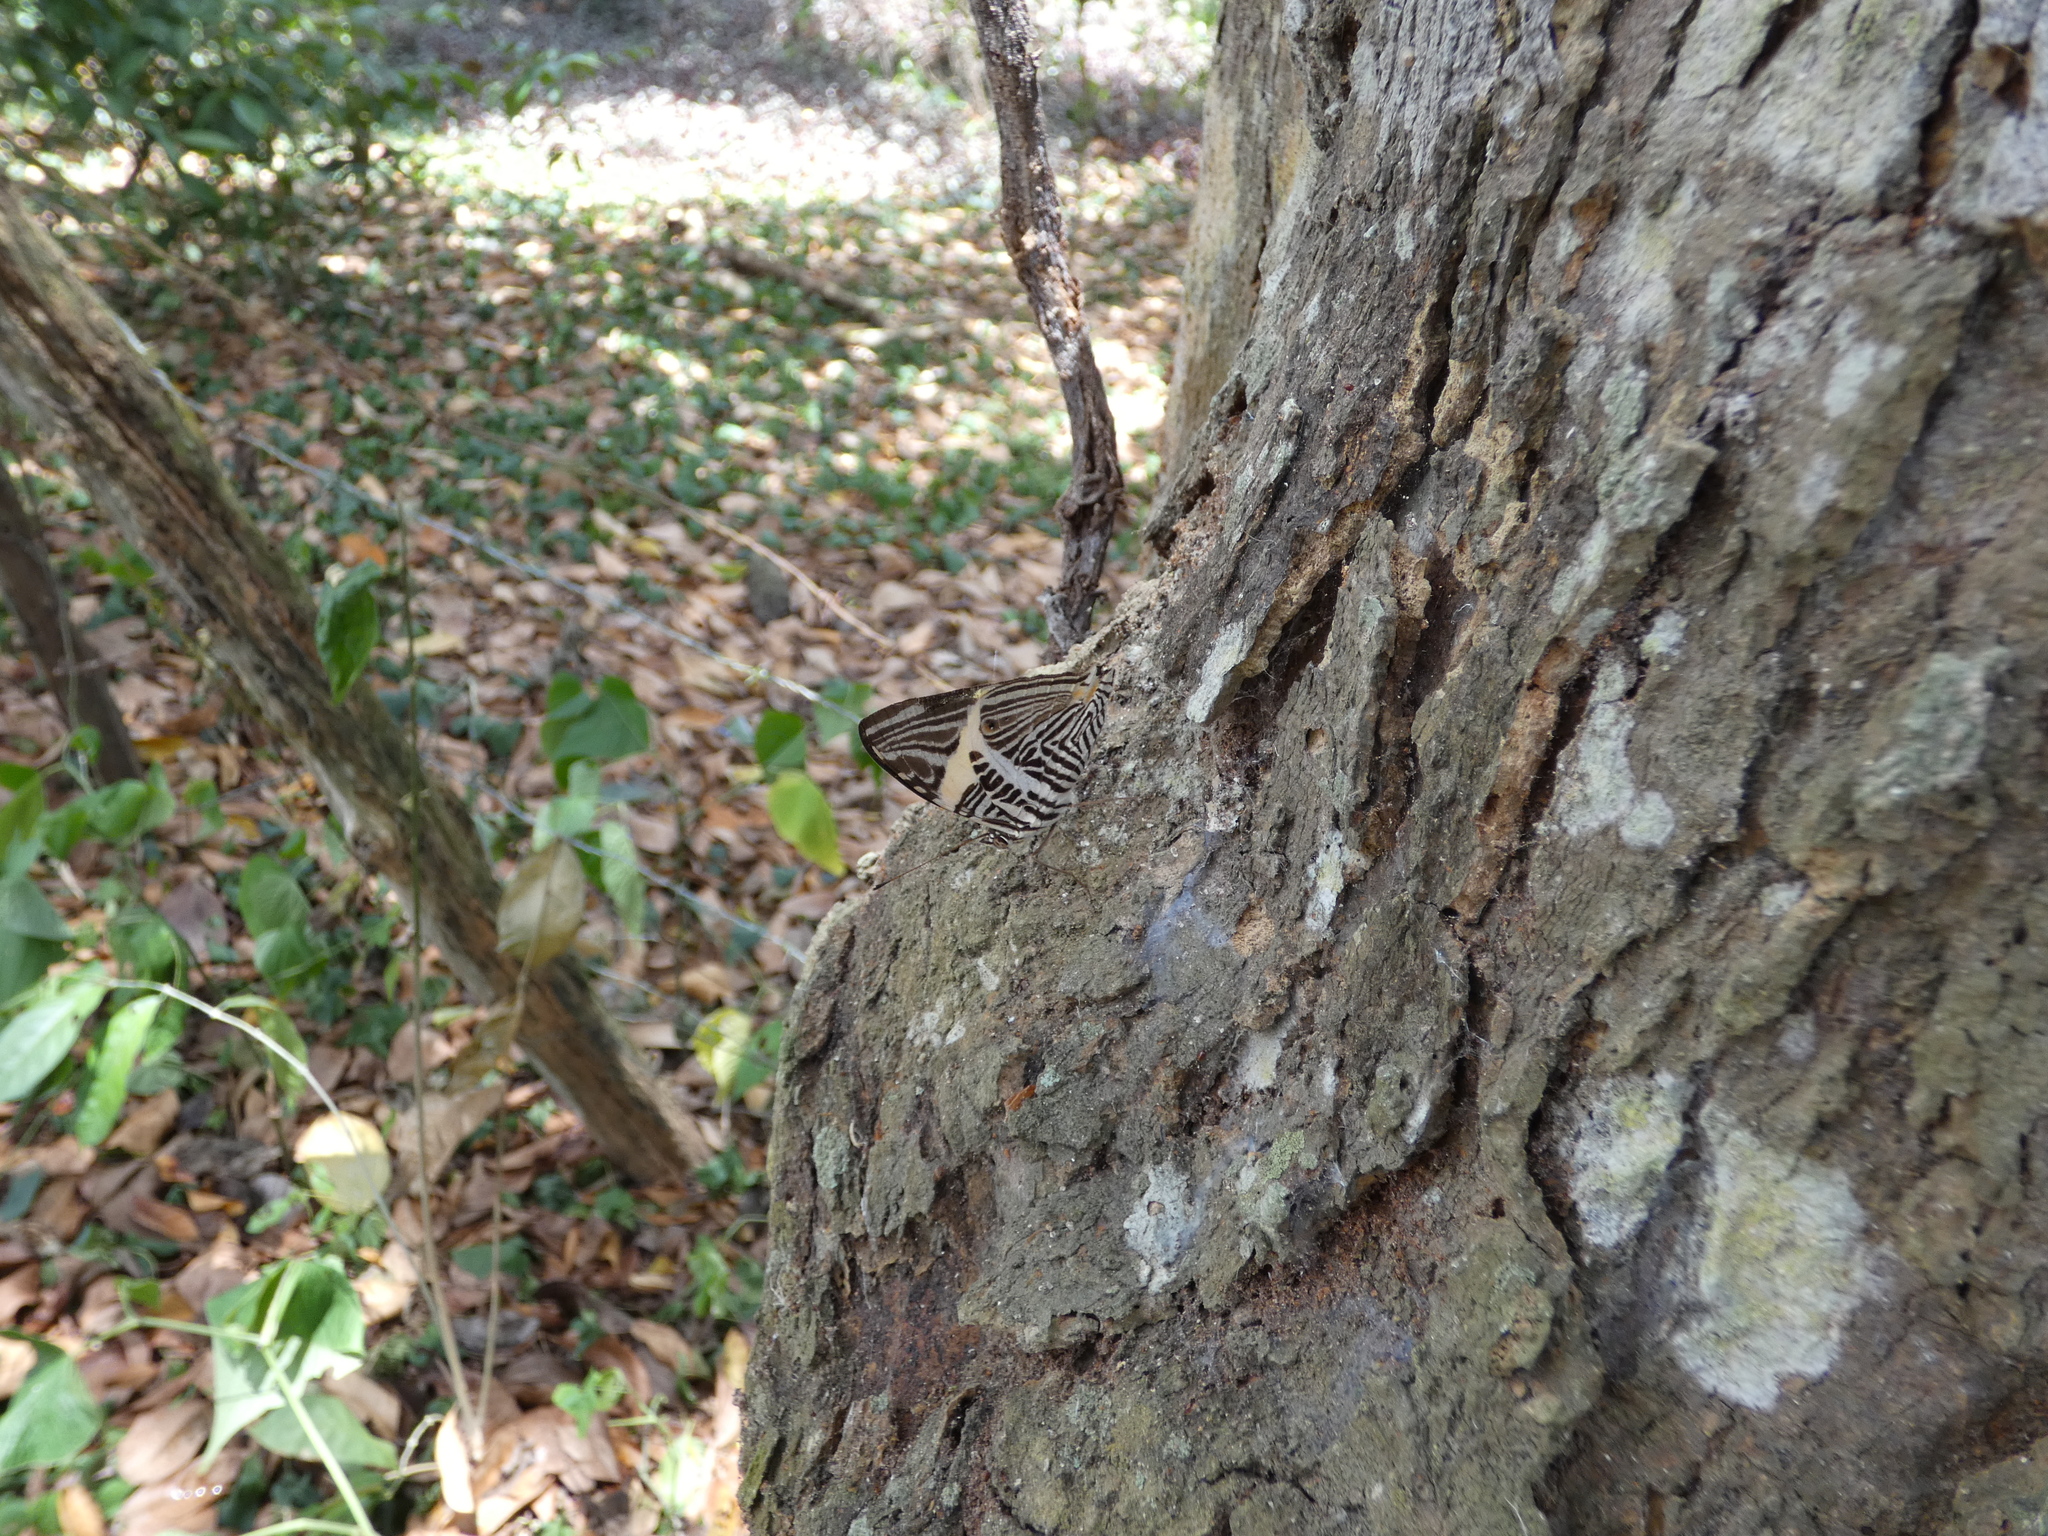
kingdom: Animalia
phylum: Arthropoda
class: Insecta
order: Lepidoptera
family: Nymphalidae
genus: Colobura
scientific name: Colobura dirce
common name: Dirce beauty
